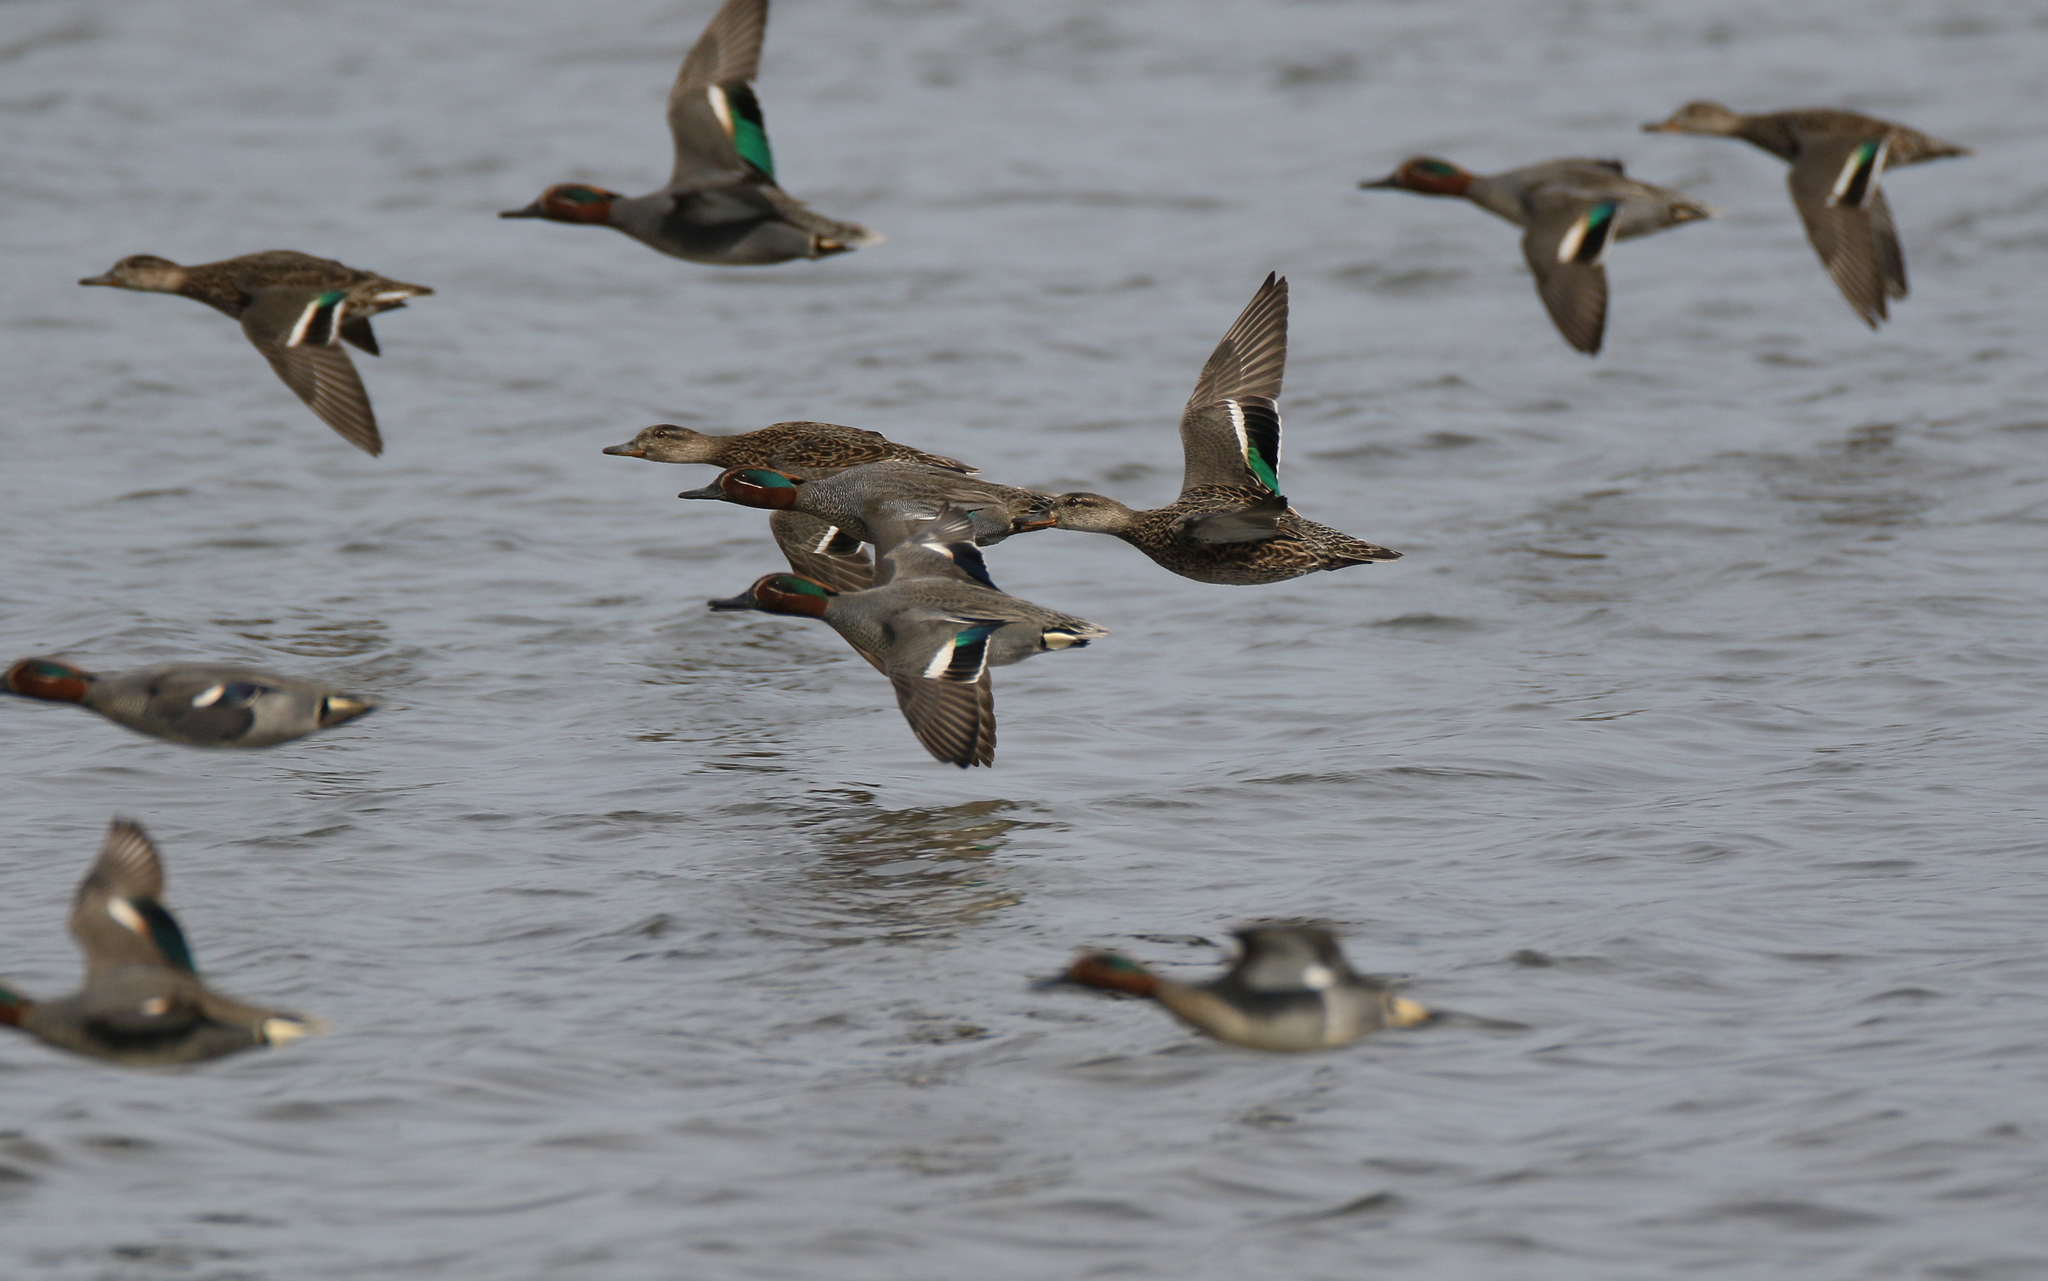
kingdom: Animalia
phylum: Chordata
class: Aves
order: Anseriformes
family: Anatidae
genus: Anas
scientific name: Anas crecca
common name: Eurasian teal
